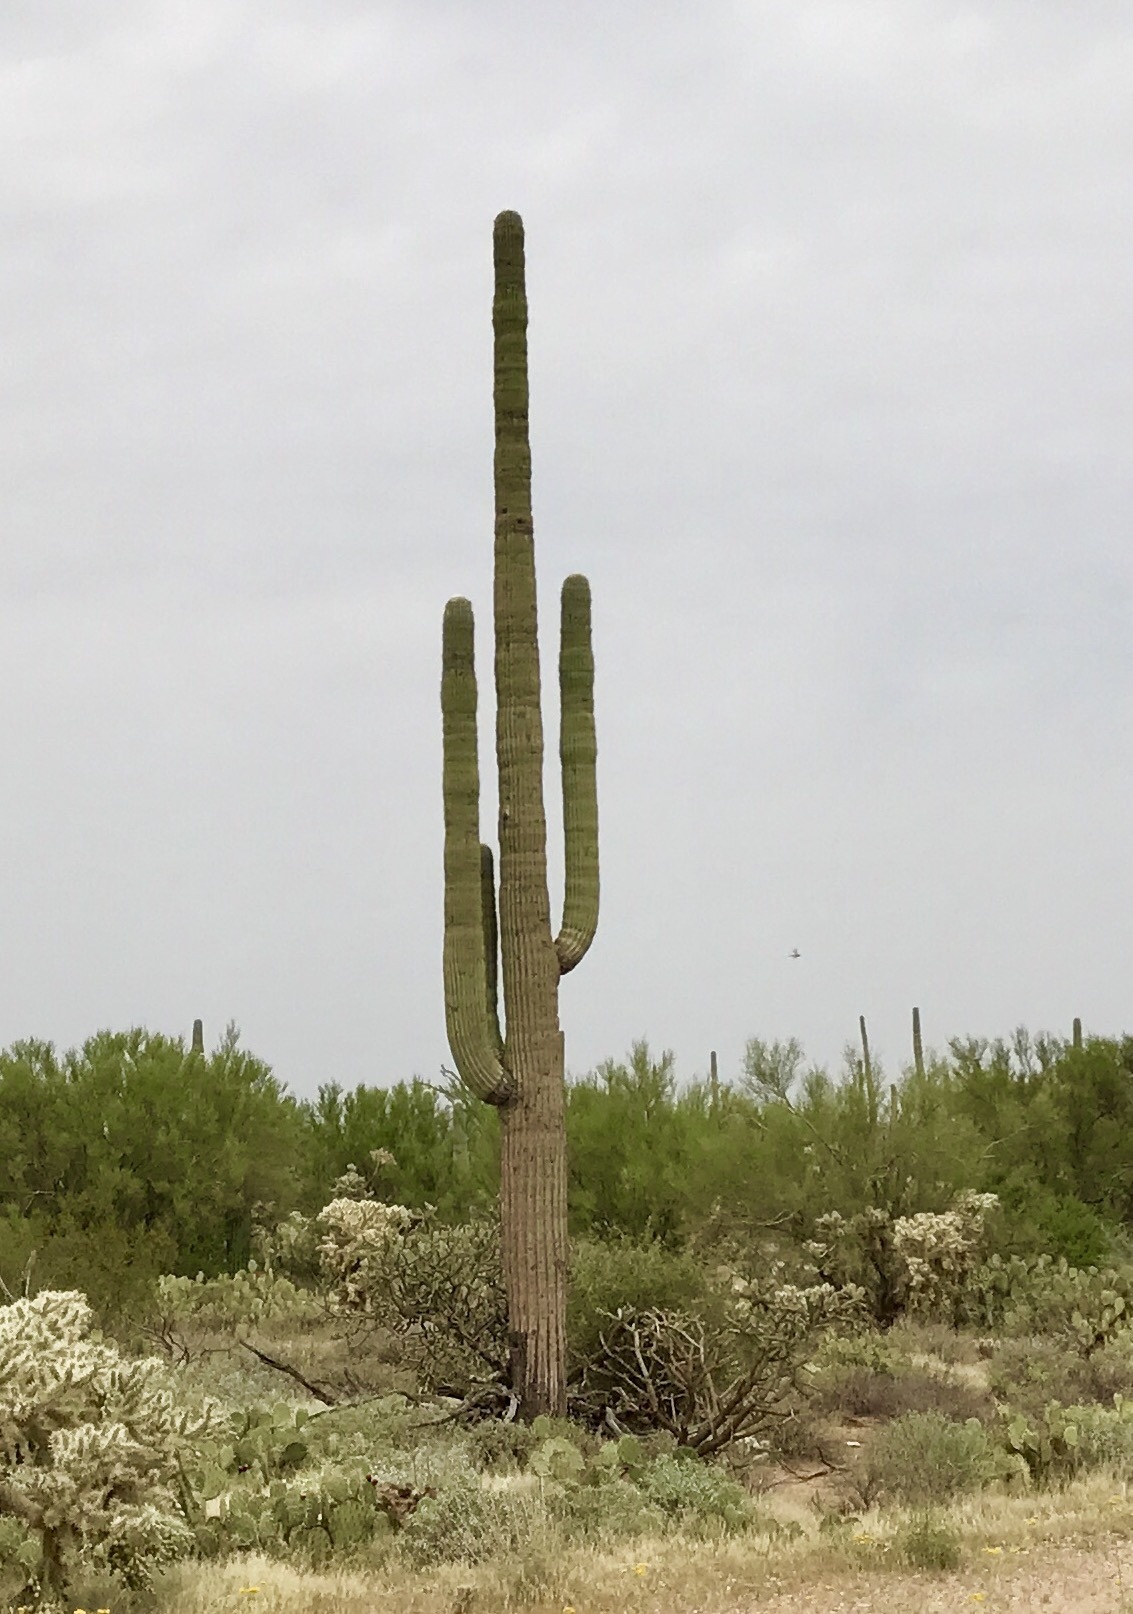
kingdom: Plantae
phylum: Tracheophyta
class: Magnoliopsida
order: Caryophyllales
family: Cactaceae
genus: Carnegiea
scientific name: Carnegiea gigantea
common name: Saguaro
